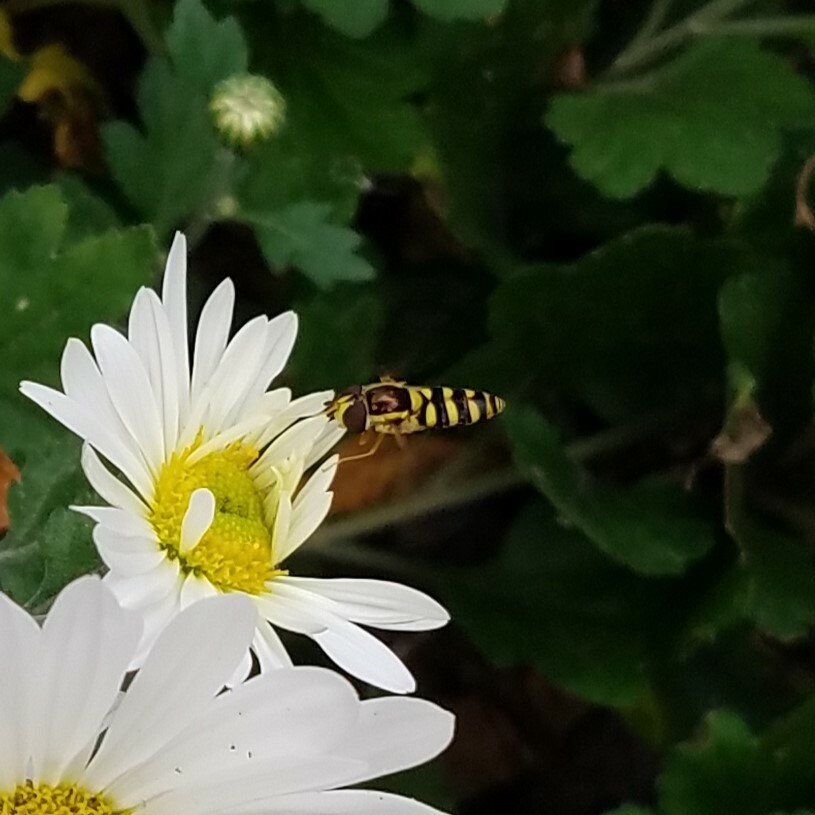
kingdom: Animalia
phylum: Arthropoda
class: Insecta
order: Diptera
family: Syrphidae
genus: Epistrophella
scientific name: Epistrophella emarginata
